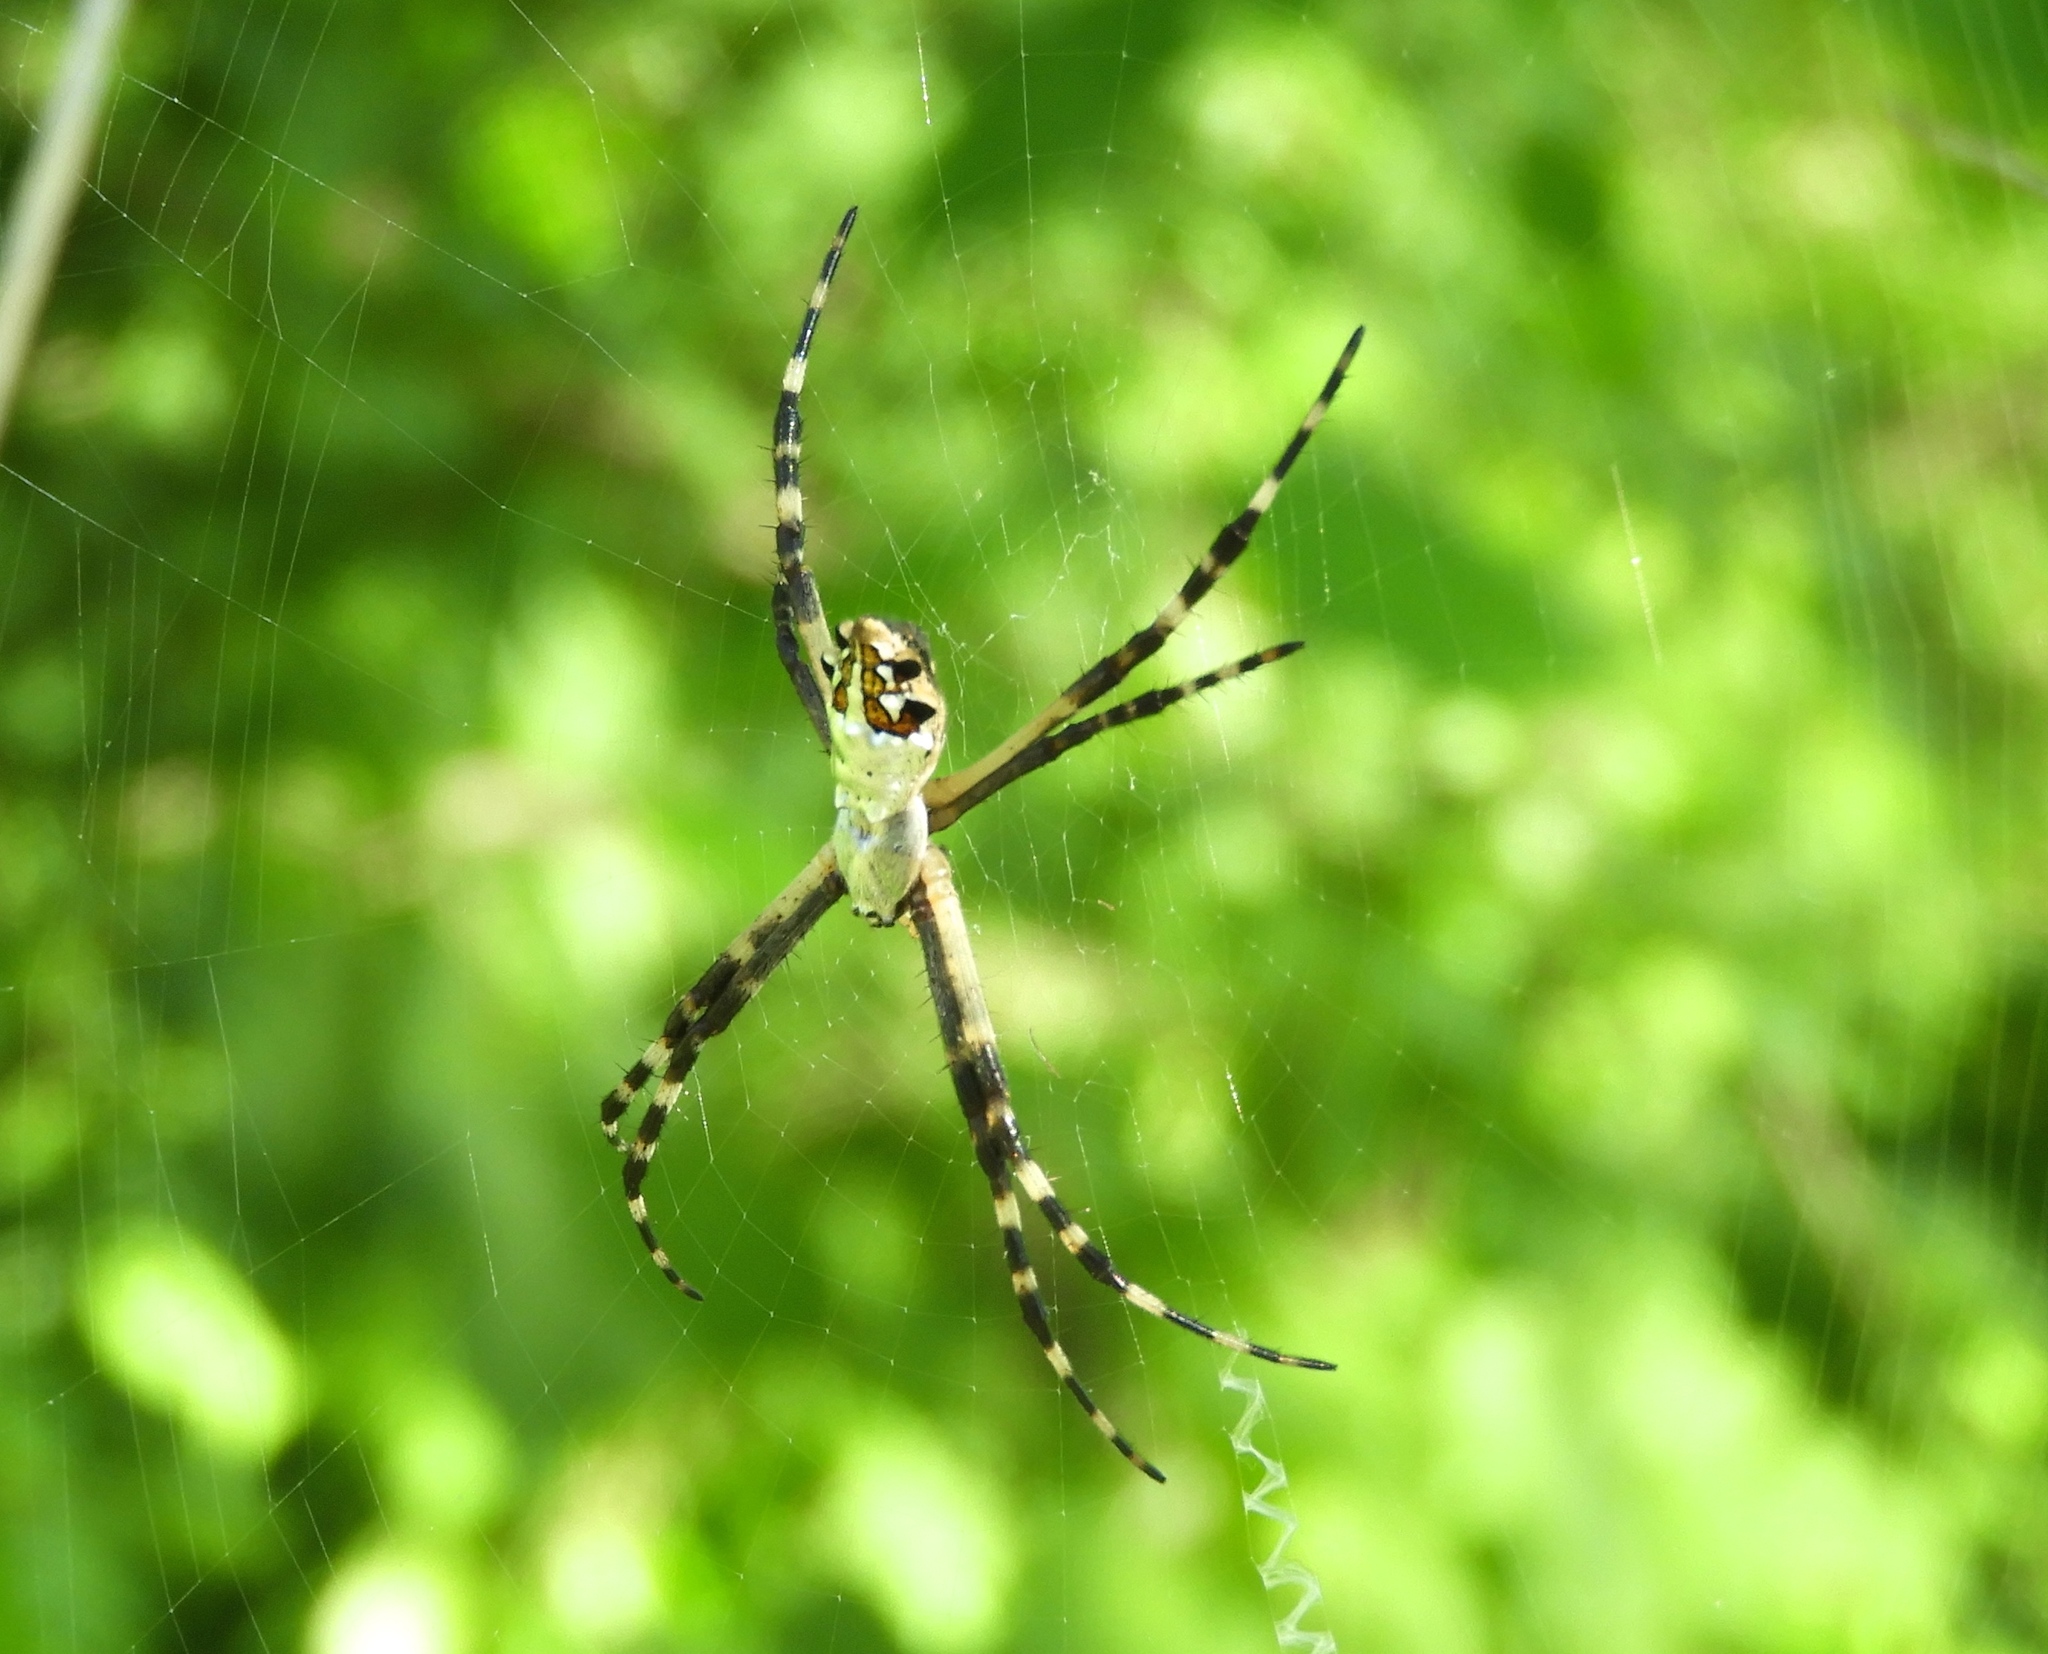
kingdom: Animalia
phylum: Arthropoda
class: Arachnida
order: Araneae
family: Araneidae
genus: Argiope
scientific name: Argiope argentata
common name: Orb weavers
